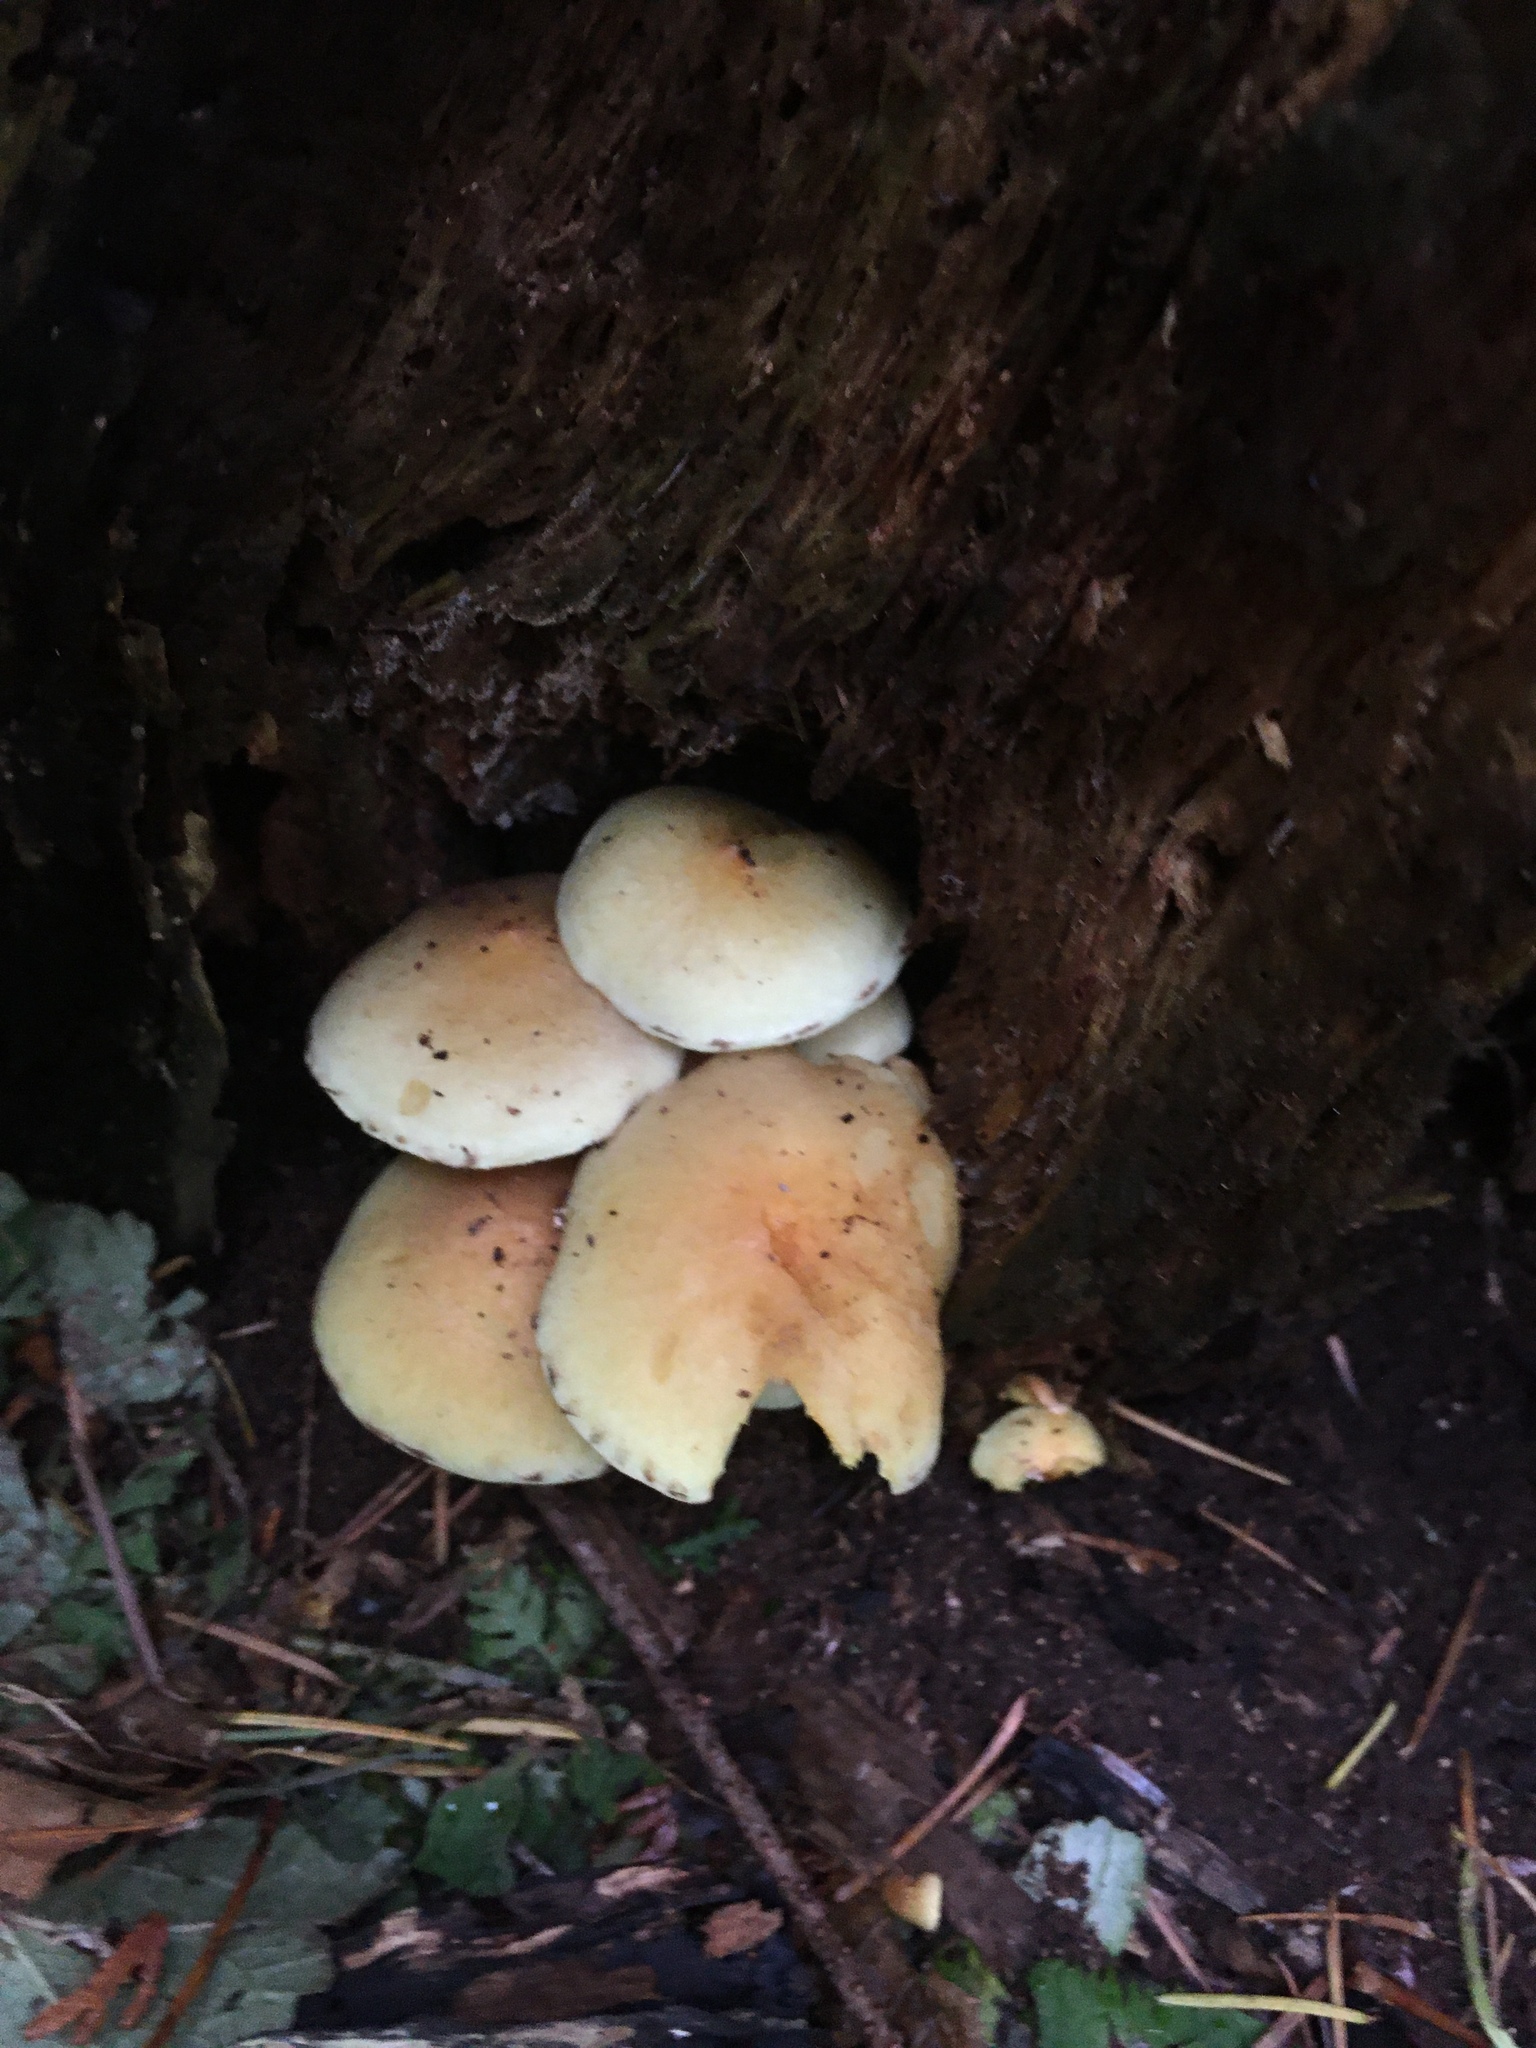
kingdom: Fungi
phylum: Basidiomycota
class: Agaricomycetes
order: Agaricales
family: Strophariaceae
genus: Hypholoma
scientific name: Hypholoma capnoides
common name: Conifer tuft
